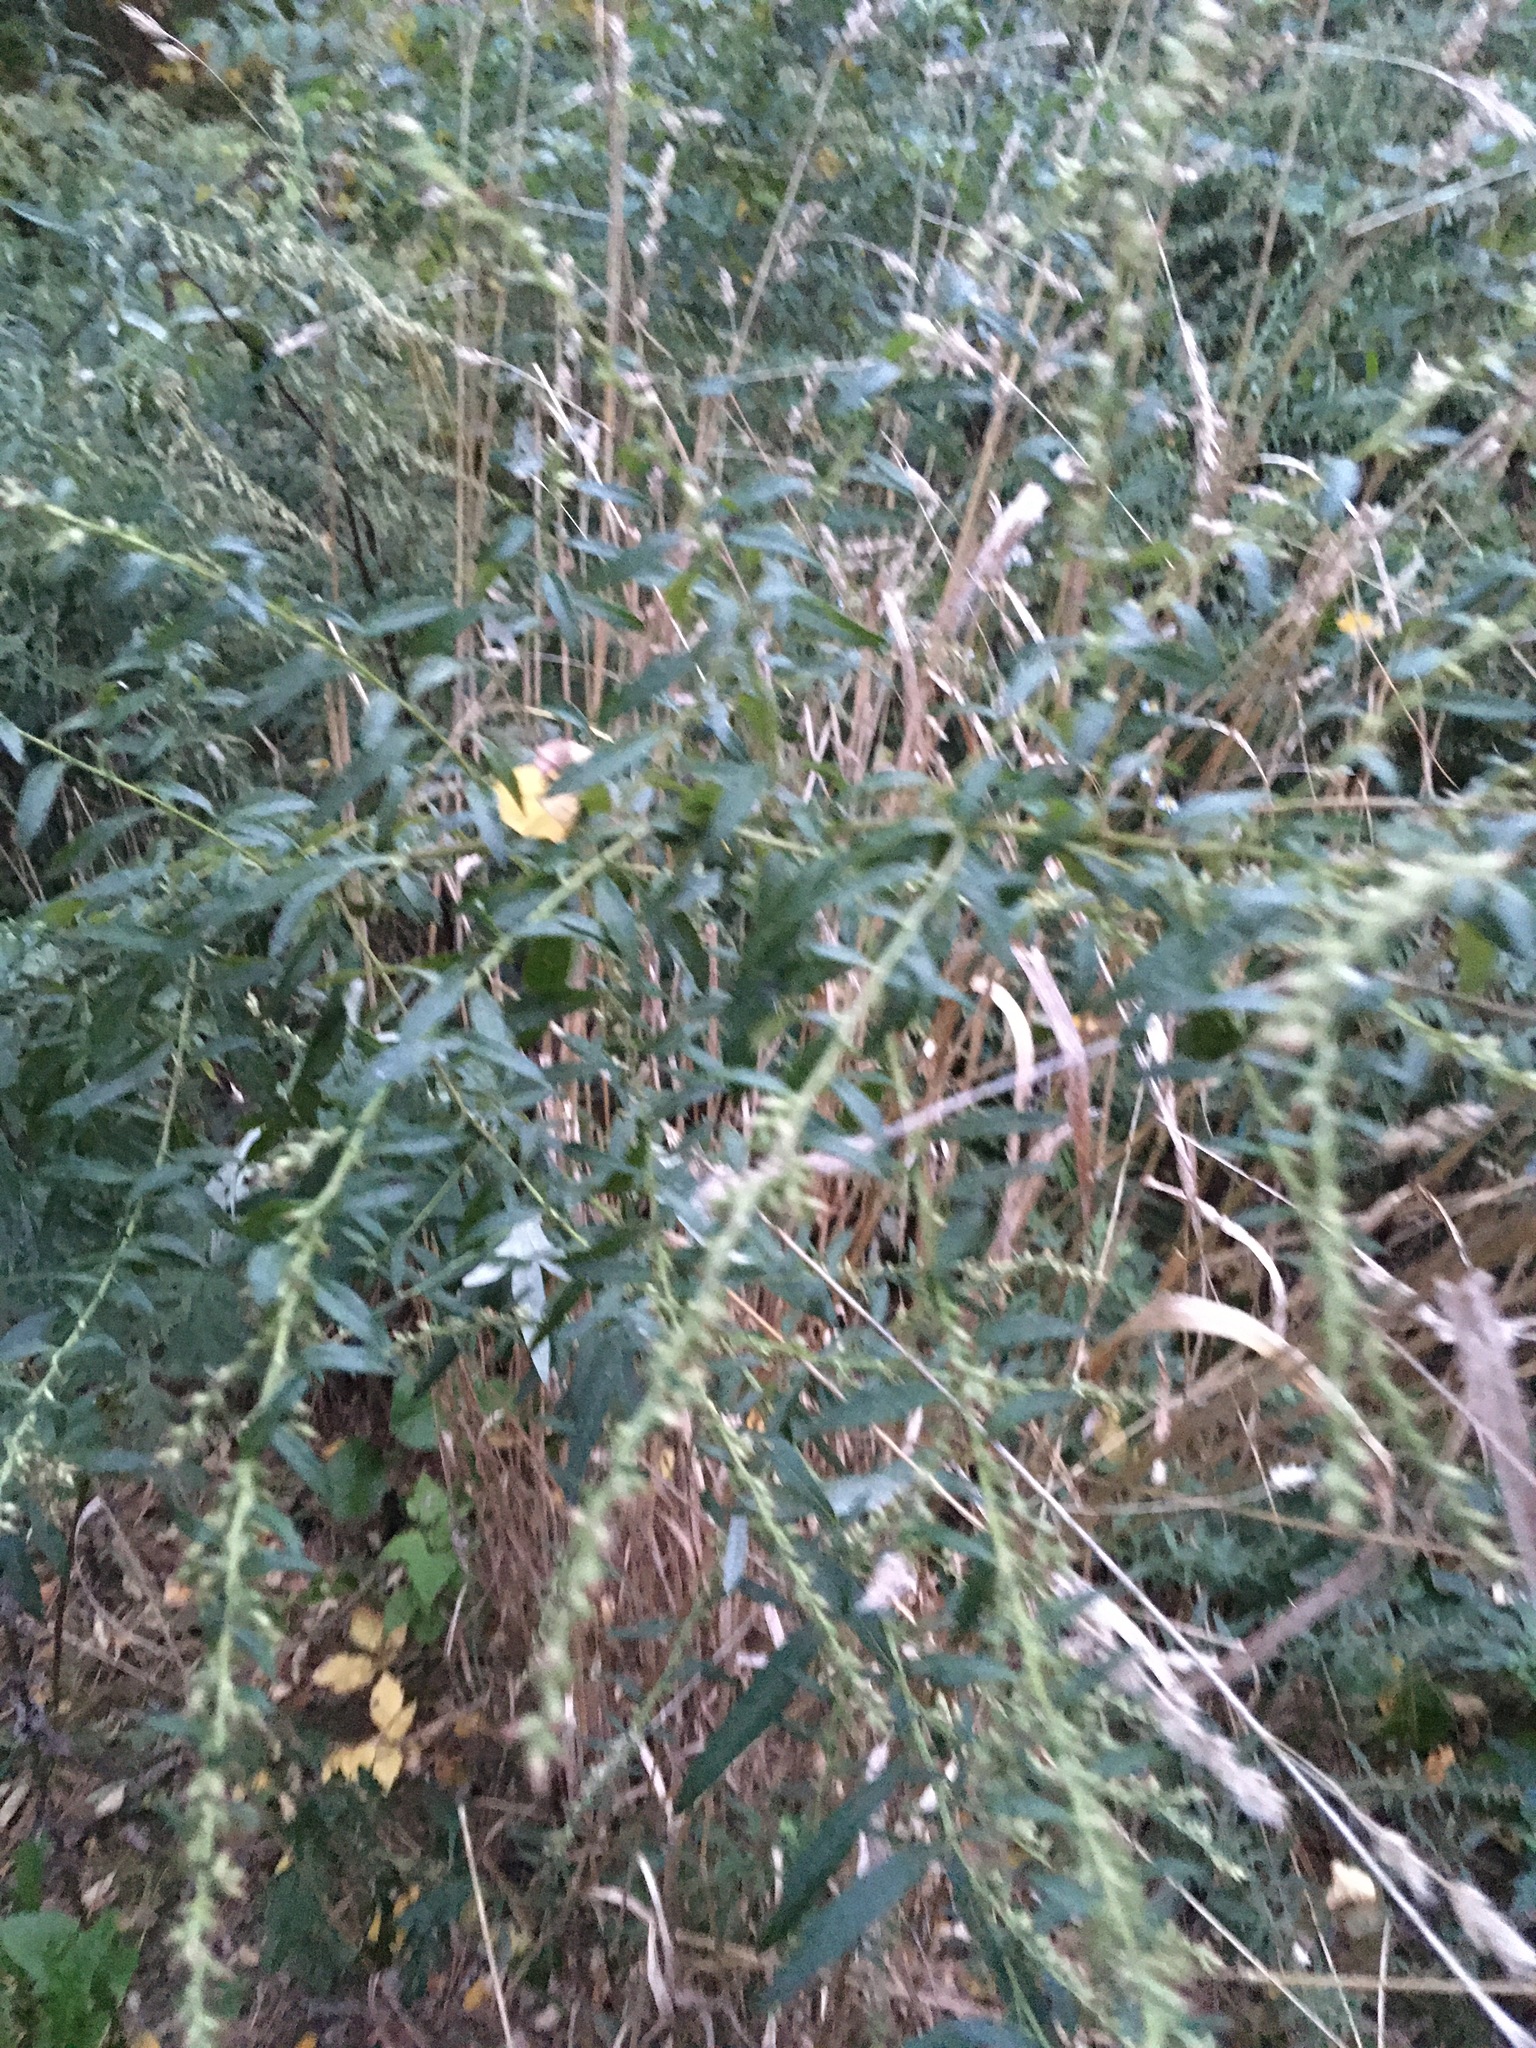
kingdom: Plantae
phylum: Tracheophyta
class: Magnoliopsida
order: Asterales
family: Asteraceae
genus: Artemisia
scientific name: Artemisia vulgaris
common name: Mugwort
